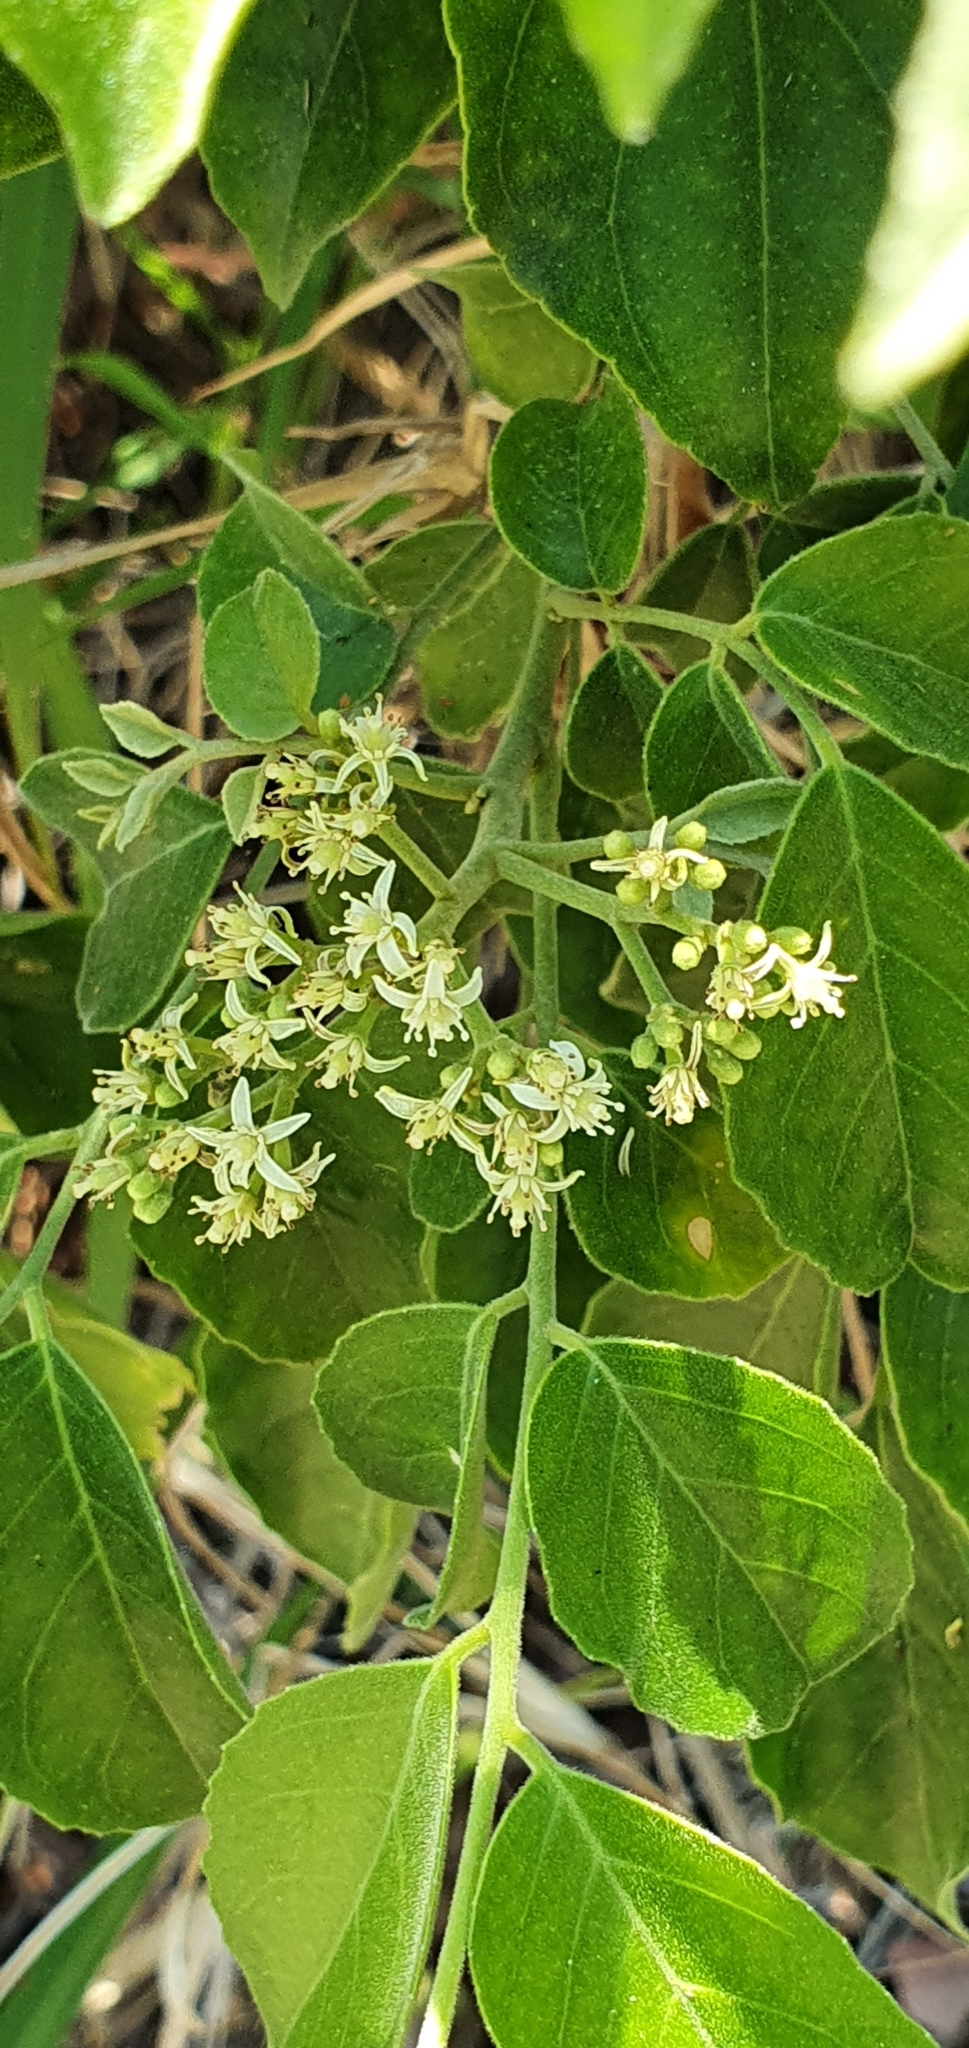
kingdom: Plantae
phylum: Tracheophyta
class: Magnoliopsida
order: Sapindales
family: Rutaceae
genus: Micromelum
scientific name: Micromelum minutum
